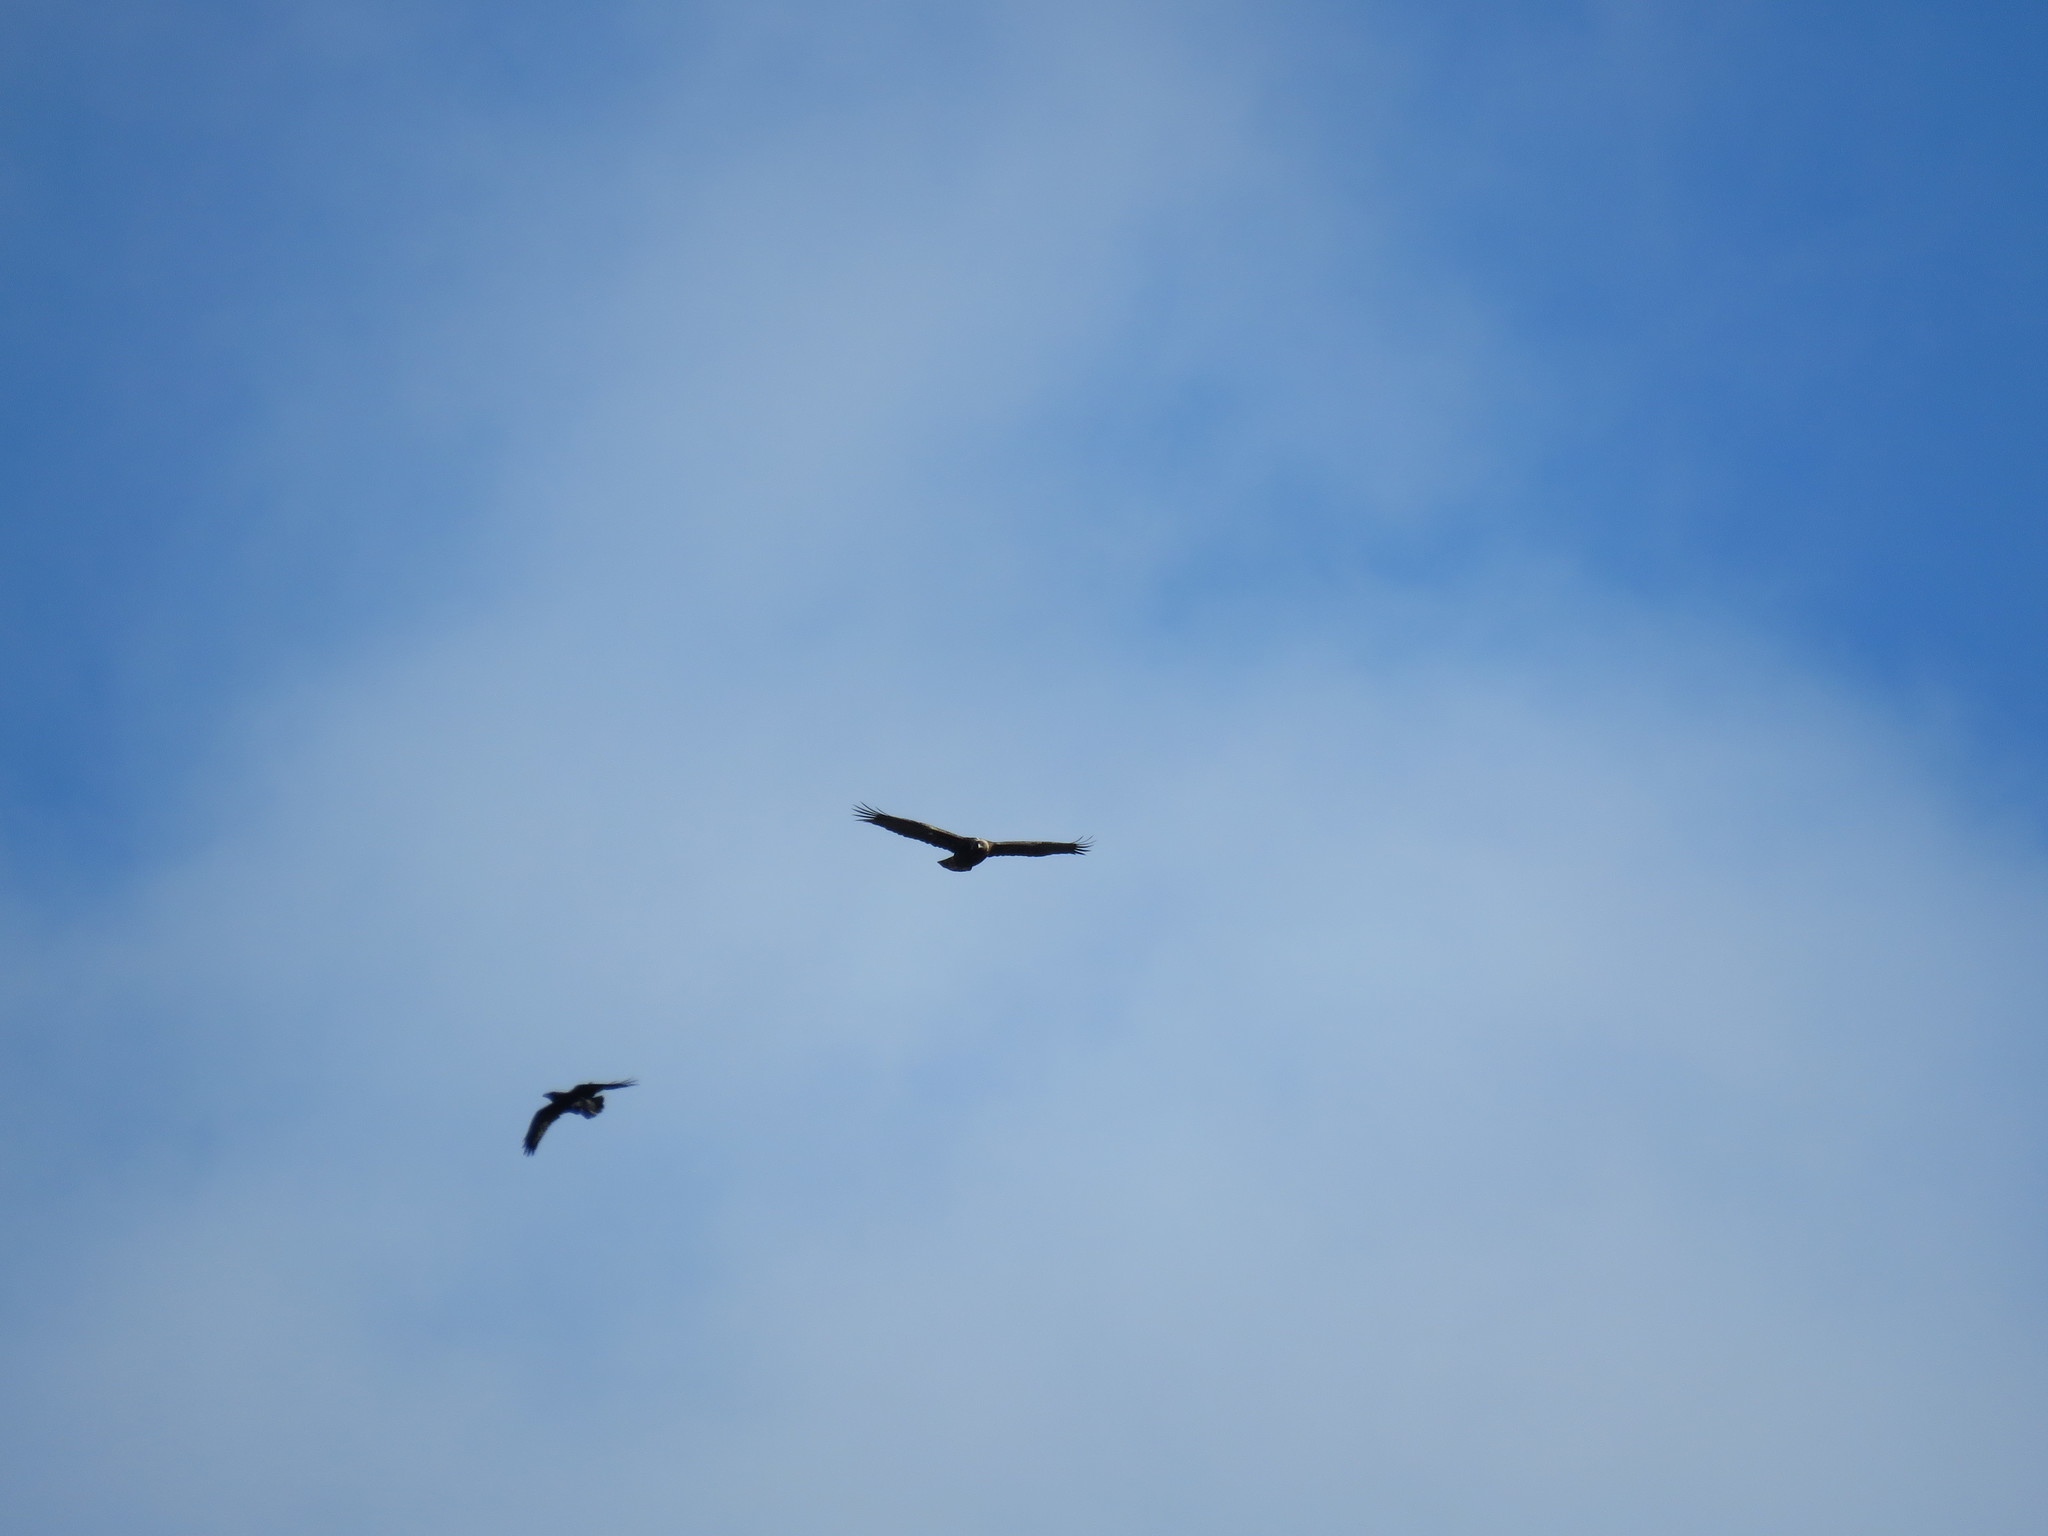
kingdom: Animalia
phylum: Chordata
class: Aves
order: Accipitriformes
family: Accipitridae
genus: Aquila
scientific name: Aquila chrysaetos
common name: Golden eagle
